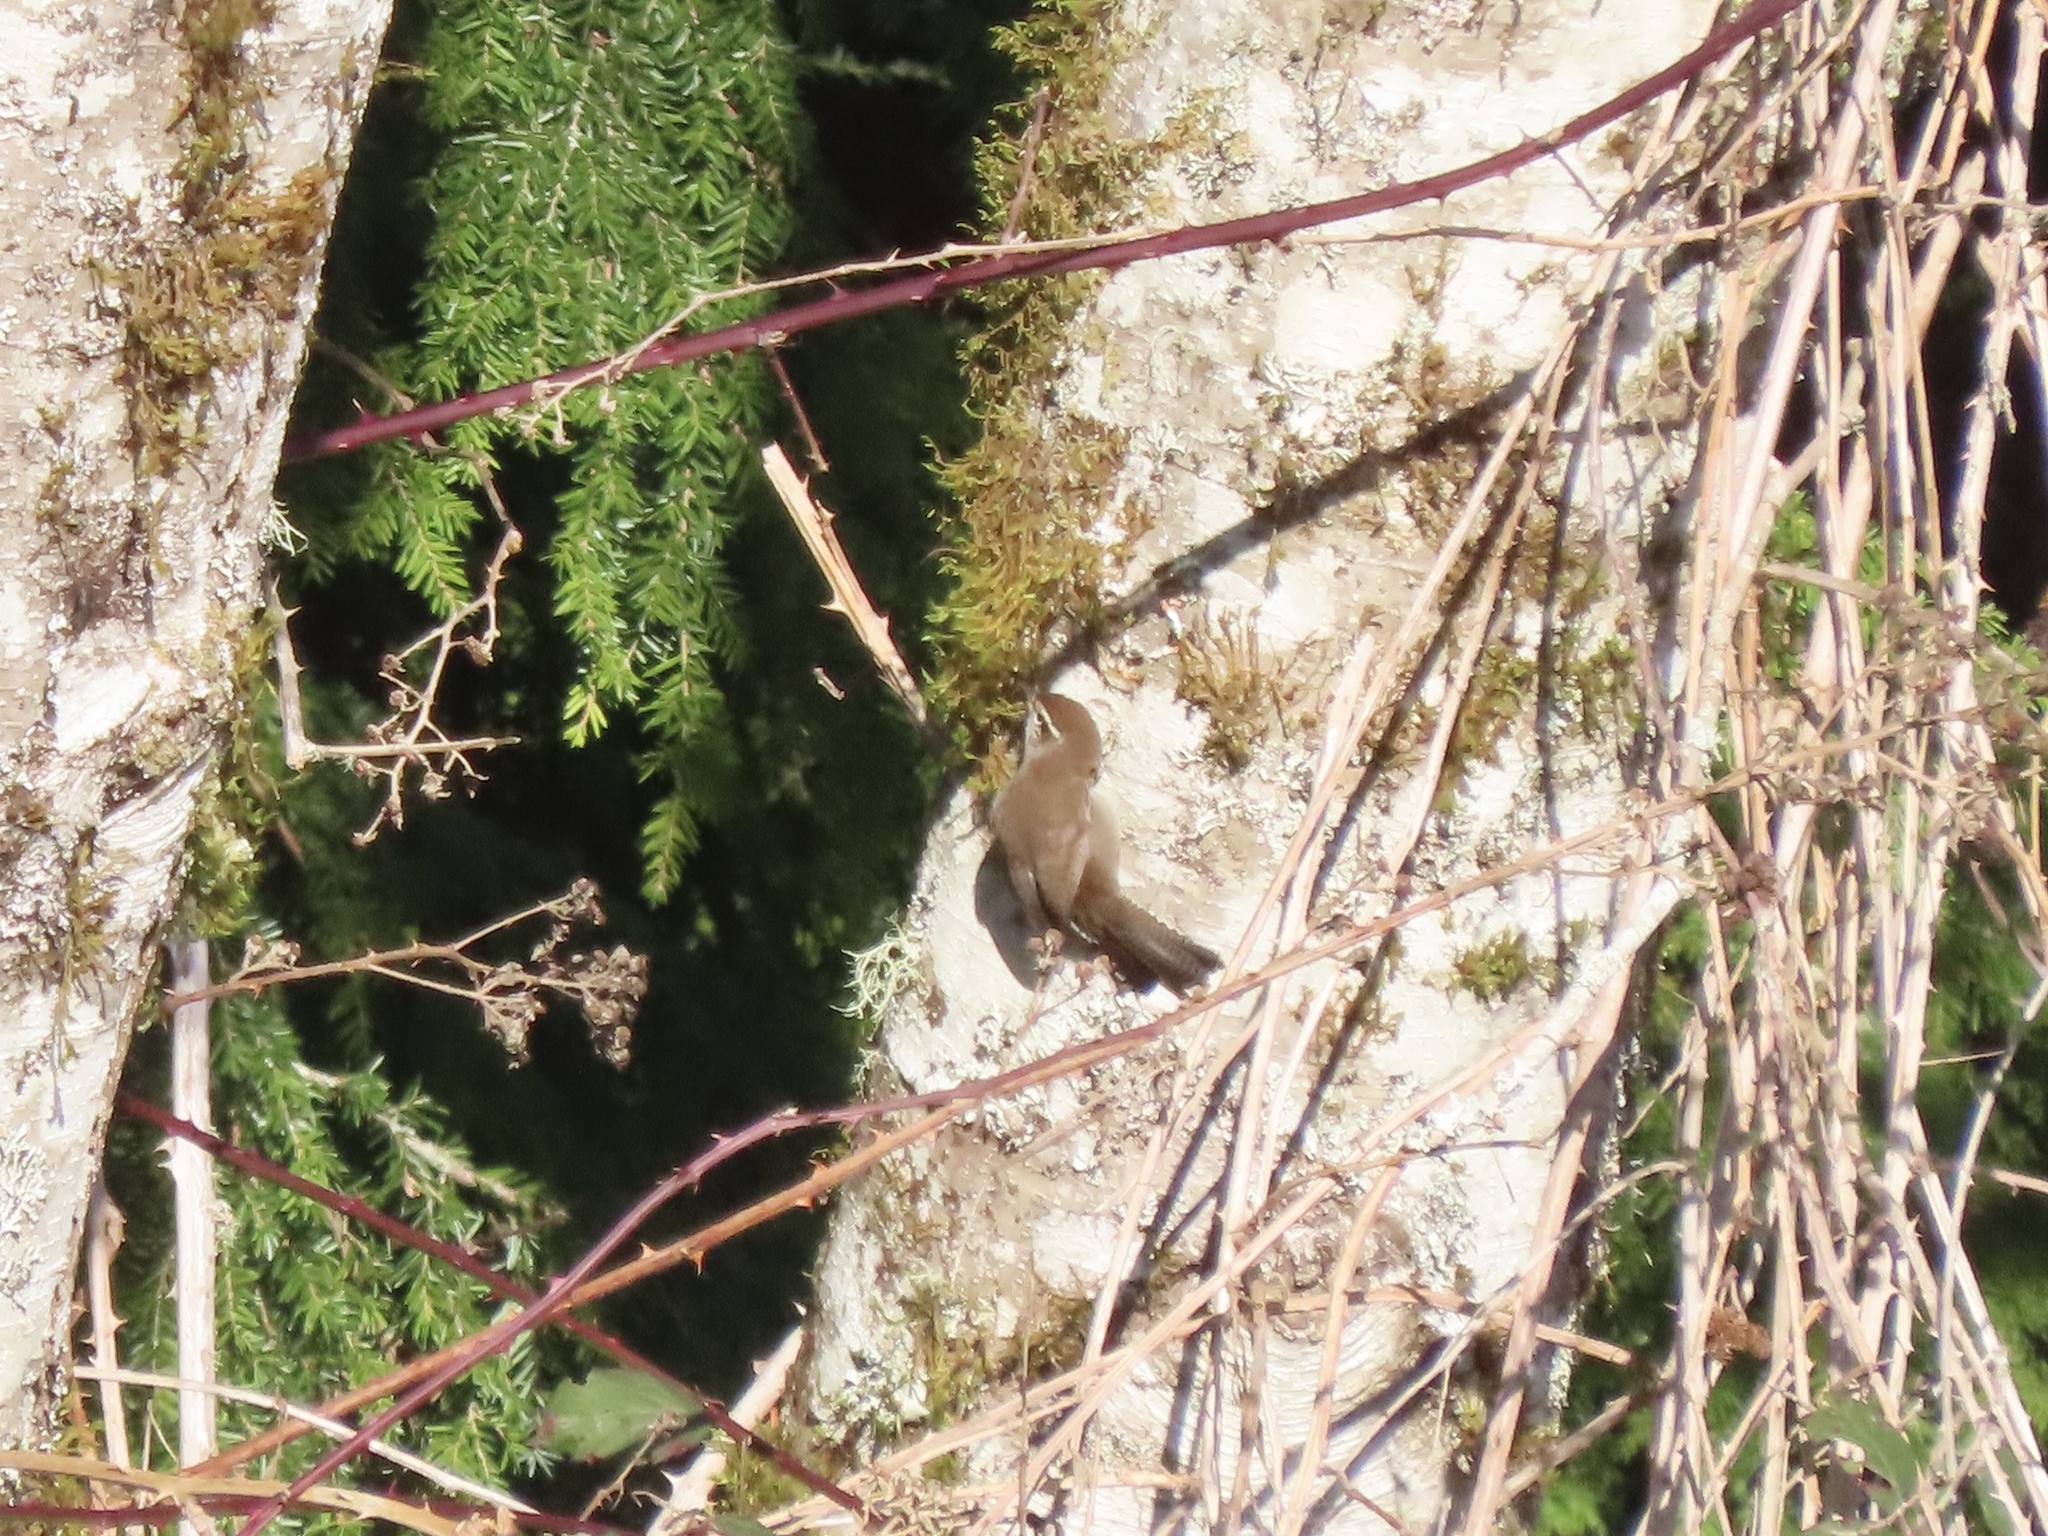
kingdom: Animalia
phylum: Chordata
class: Aves
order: Passeriformes
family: Troglodytidae
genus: Thryomanes
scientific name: Thryomanes bewickii
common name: Bewick's wren
